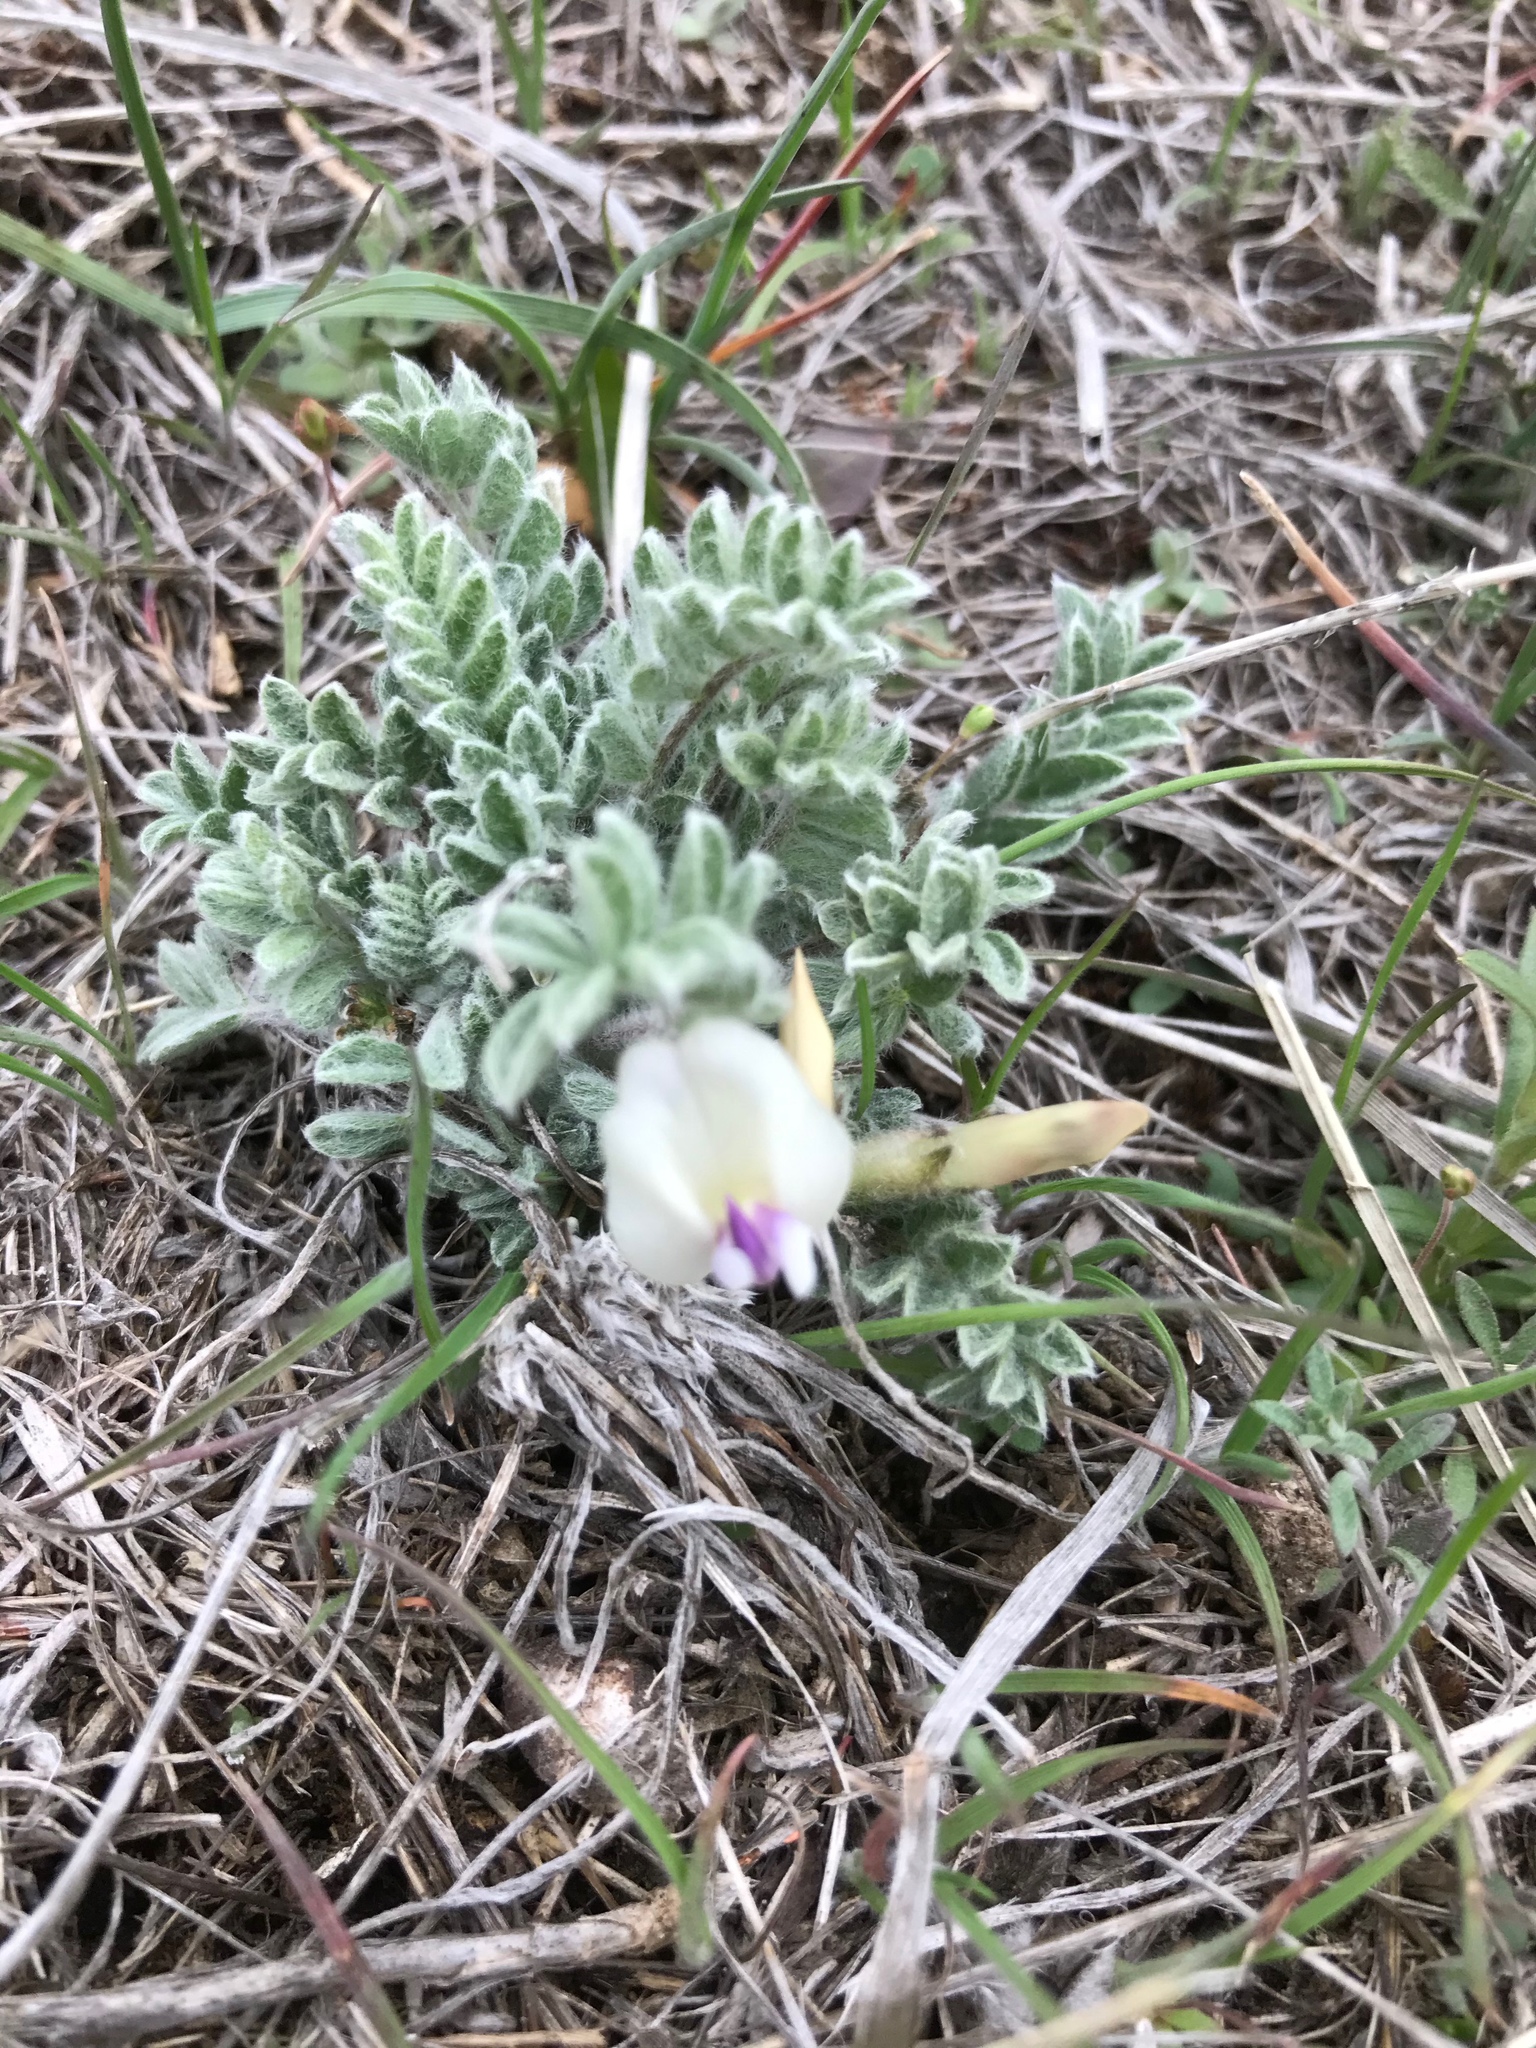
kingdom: Plantae
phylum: Tracheophyta
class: Magnoliopsida
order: Fabales
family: Fabaceae
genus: Astragalus
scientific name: Astragalus purshii
